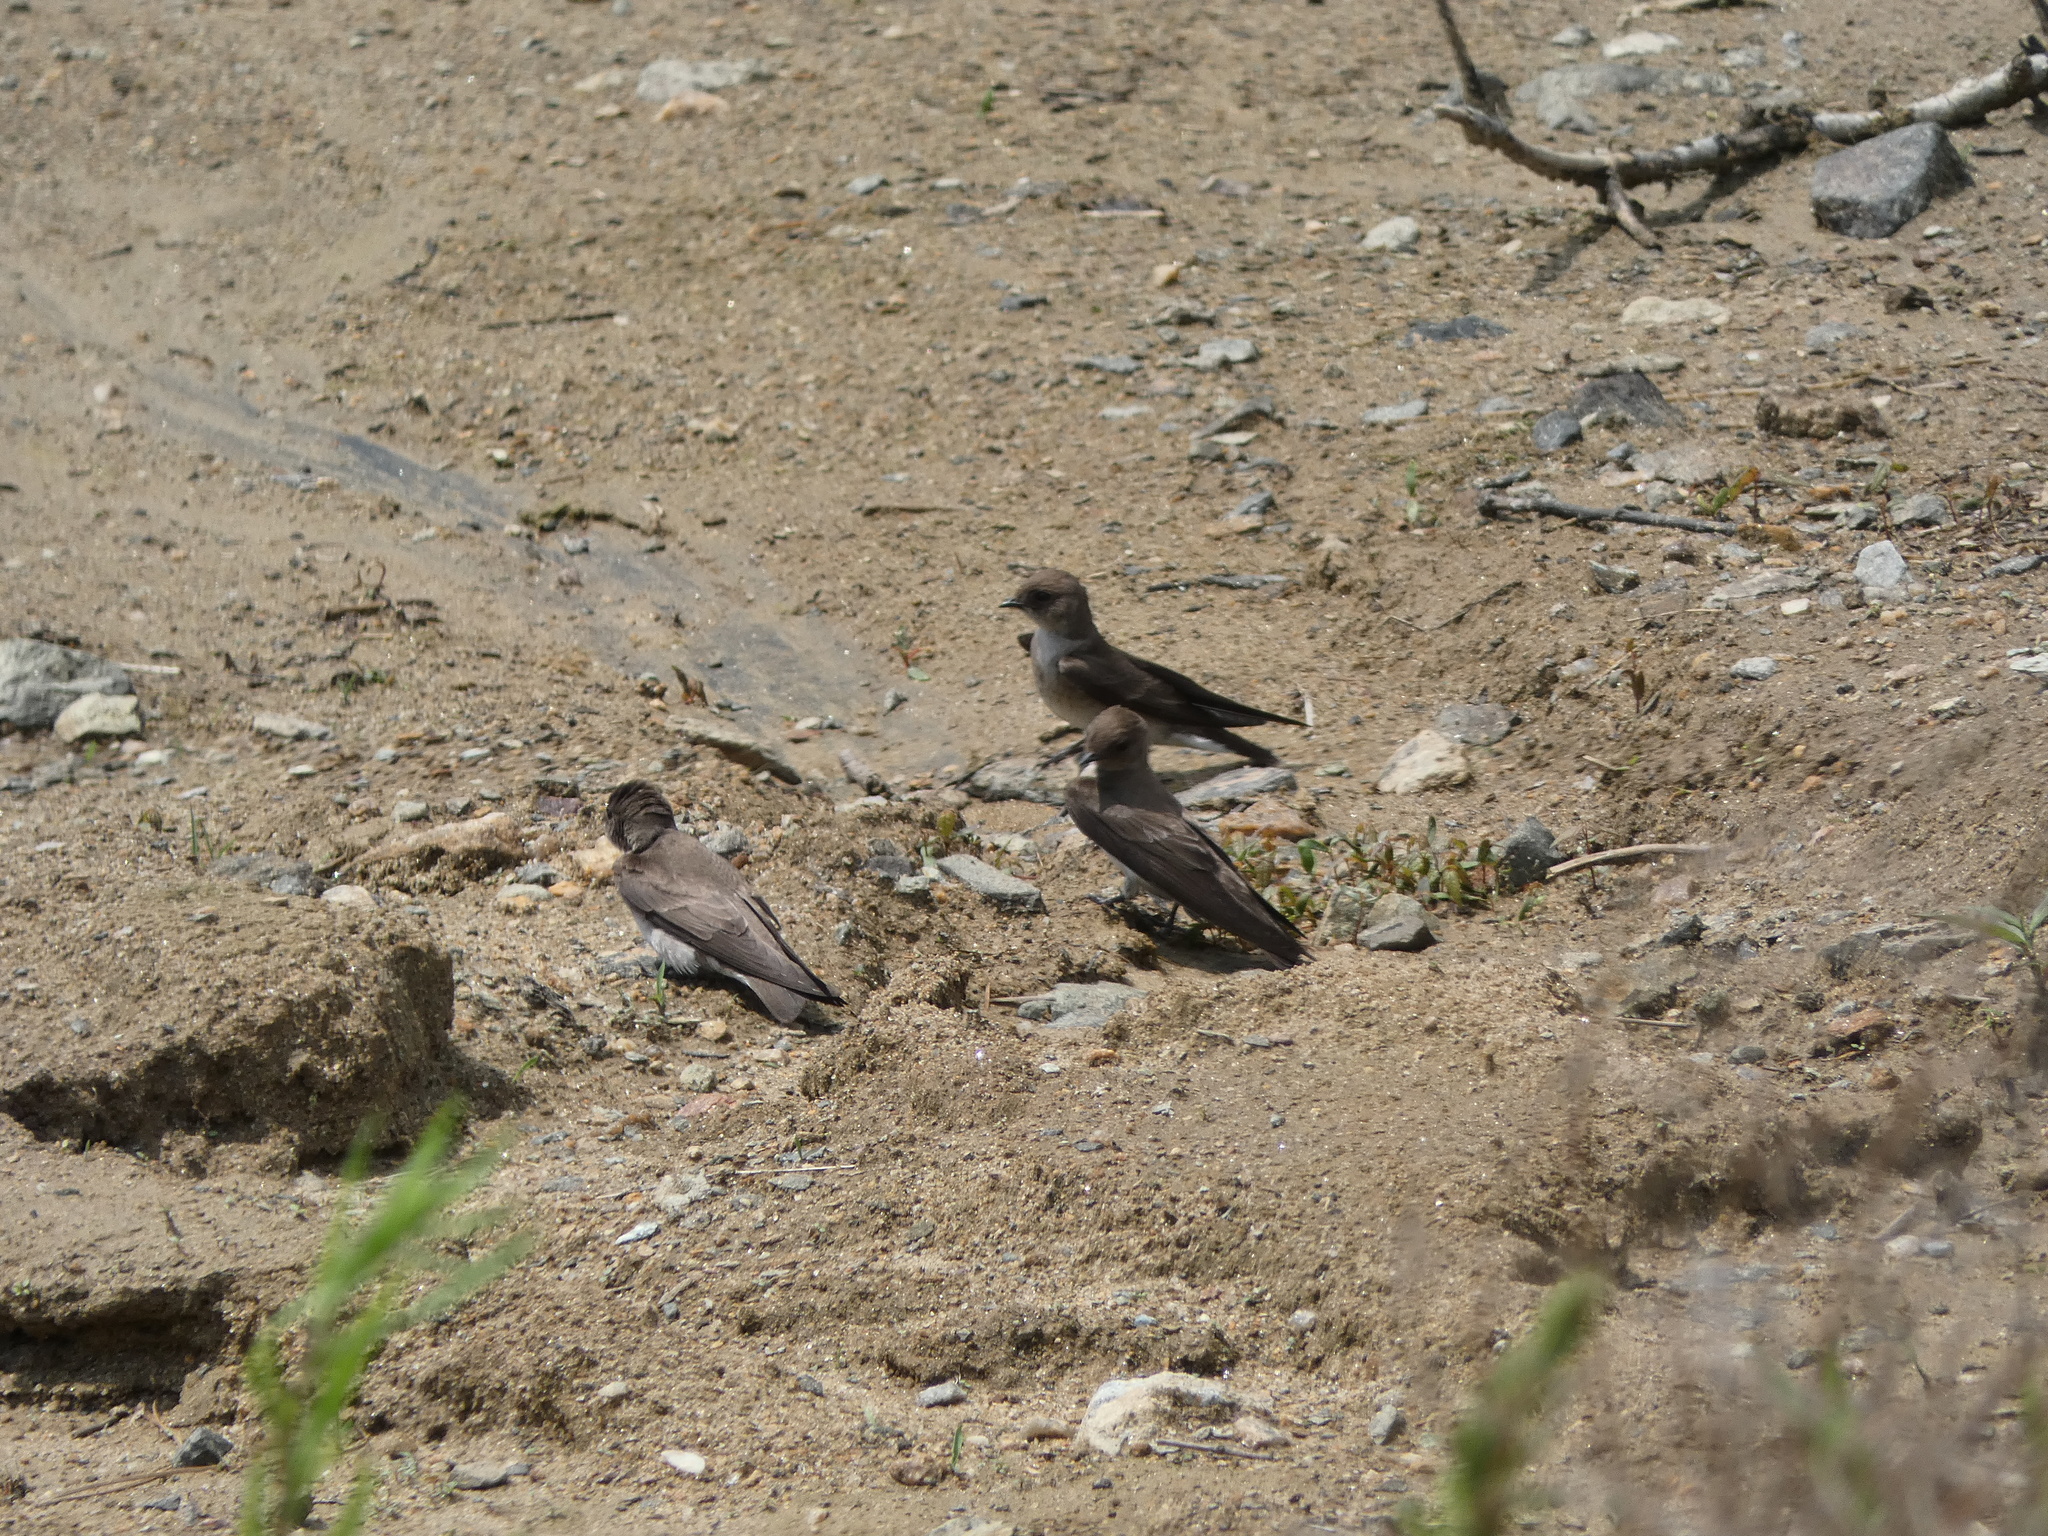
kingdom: Animalia
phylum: Chordata
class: Aves
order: Passeriformes
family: Hirundinidae
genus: Stelgidopteryx
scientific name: Stelgidopteryx serripennis
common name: Northern rough-winged swallow
